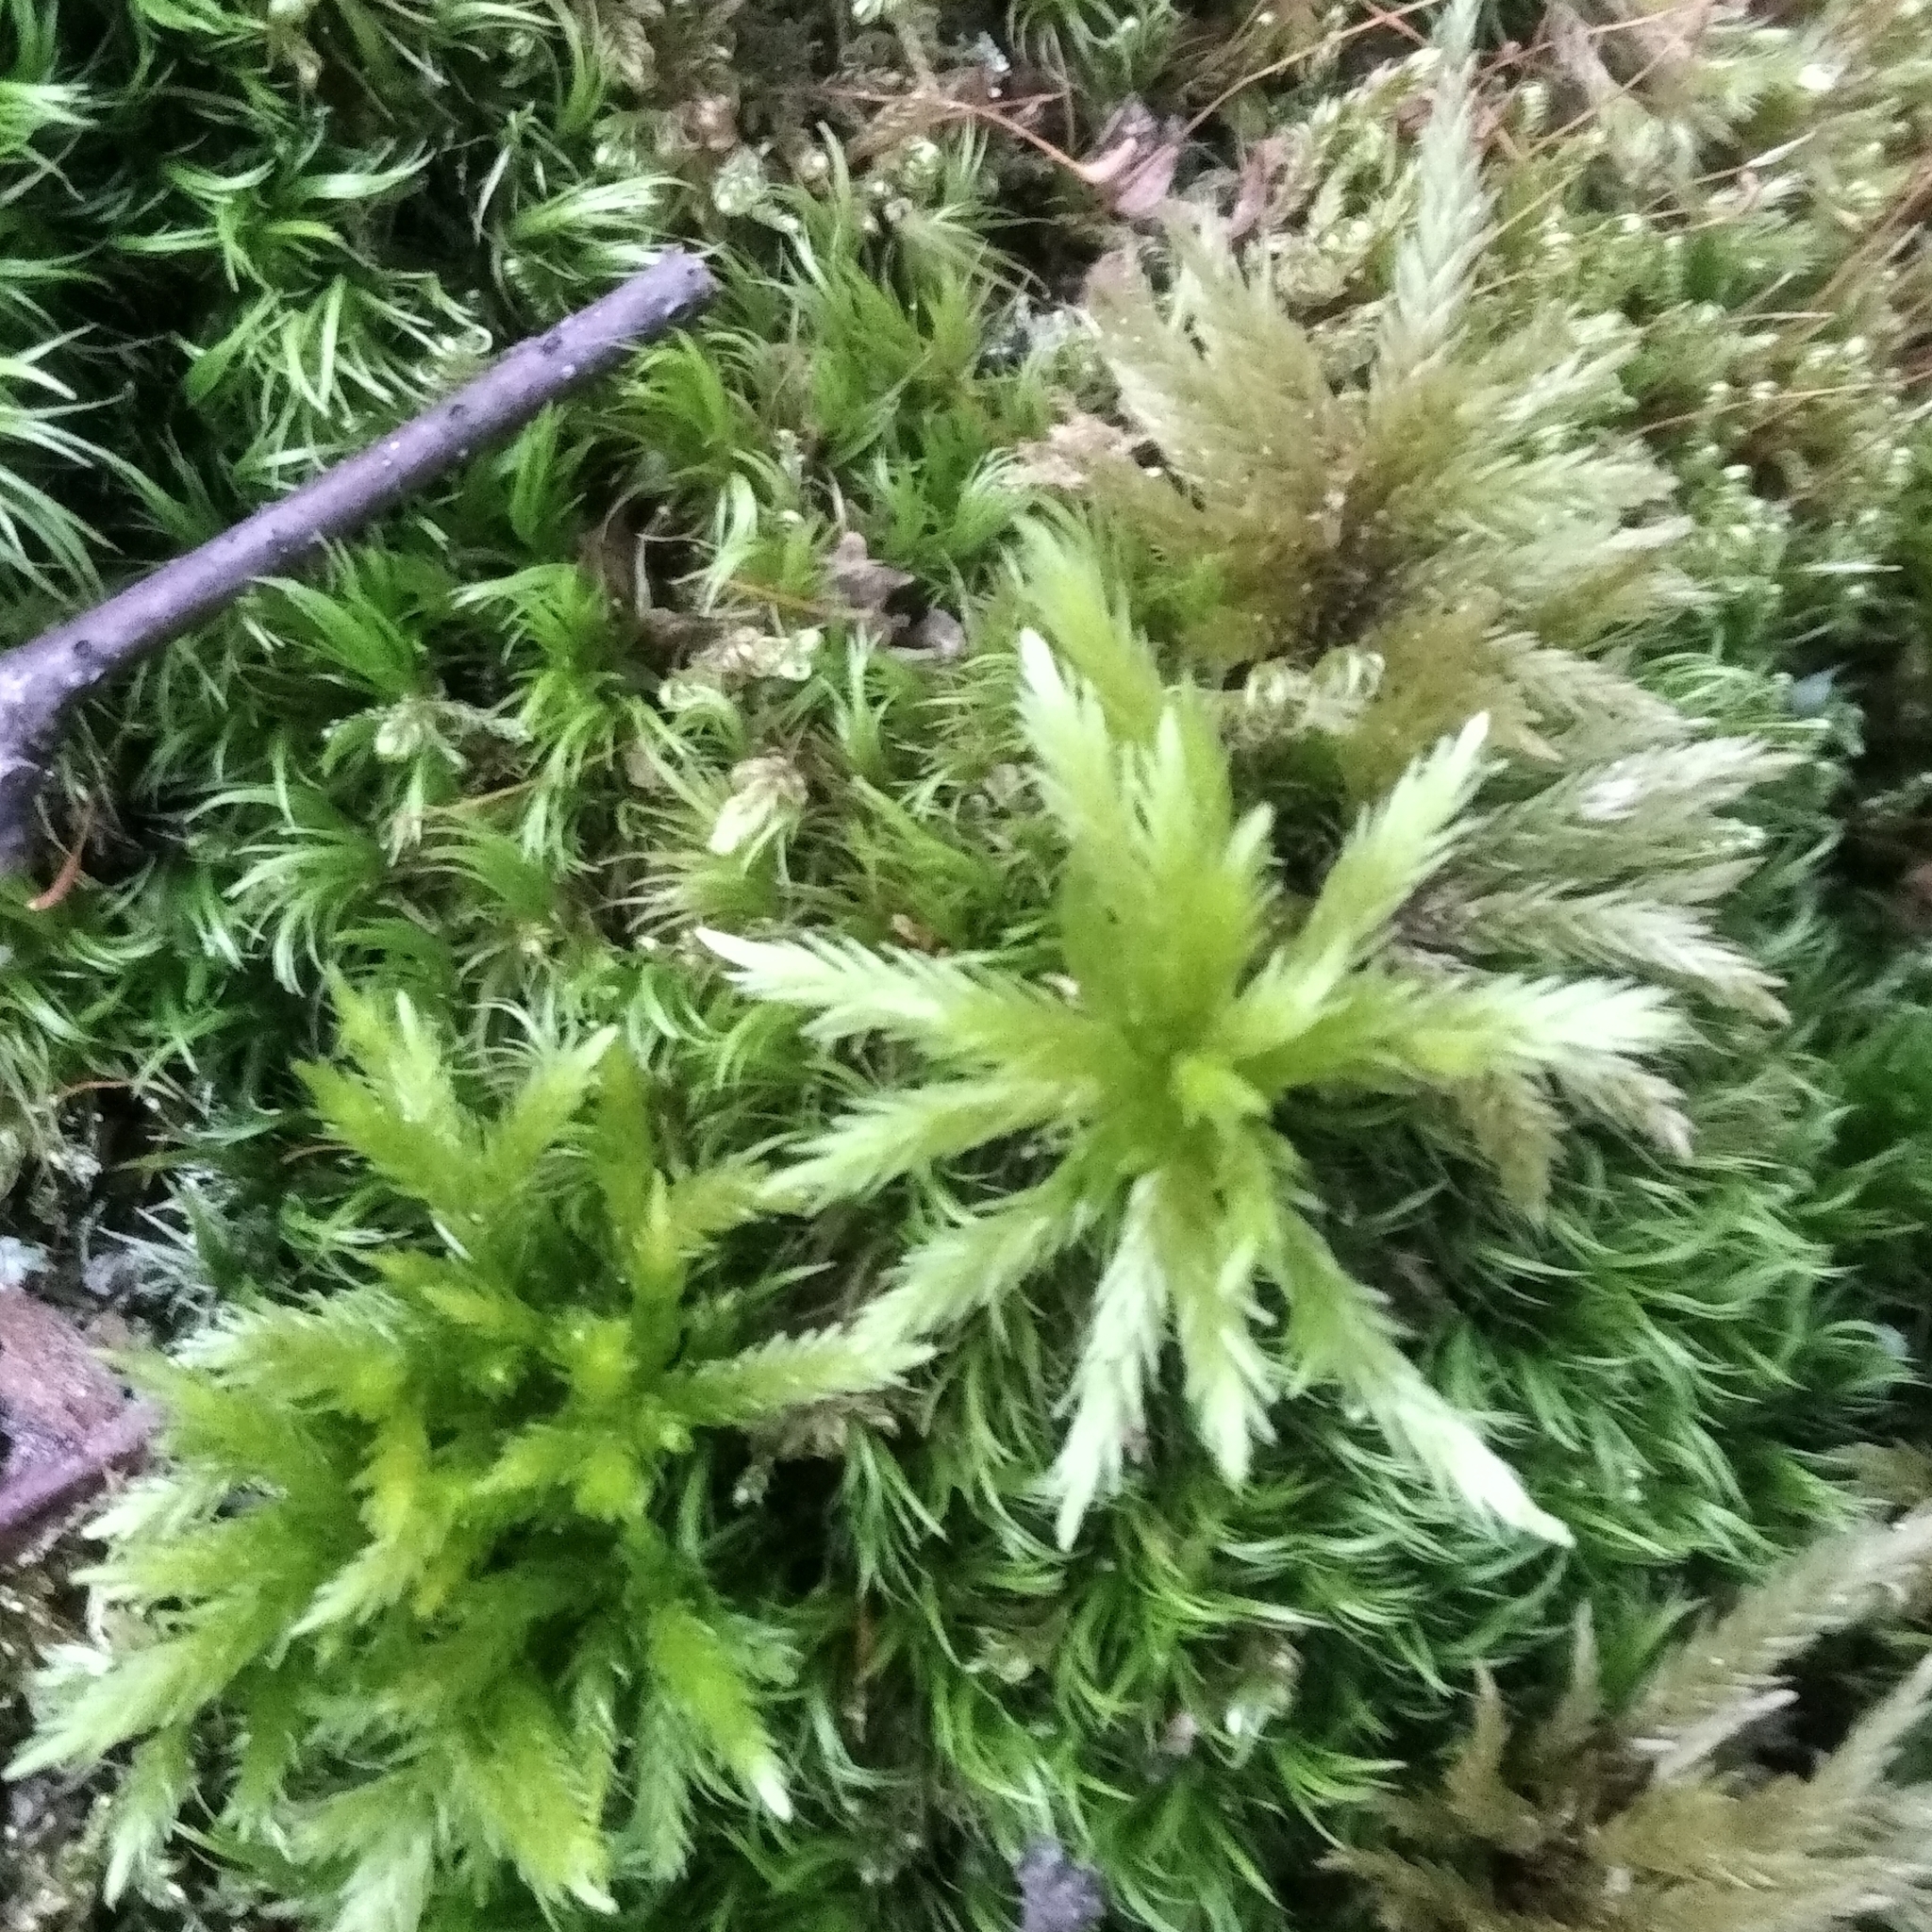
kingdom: Plantae
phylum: Bryophyta
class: Bryopsida
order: Hypnales
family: Climaciaceae
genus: Climacium
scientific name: Climacium dendroides
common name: Northern tree moss
